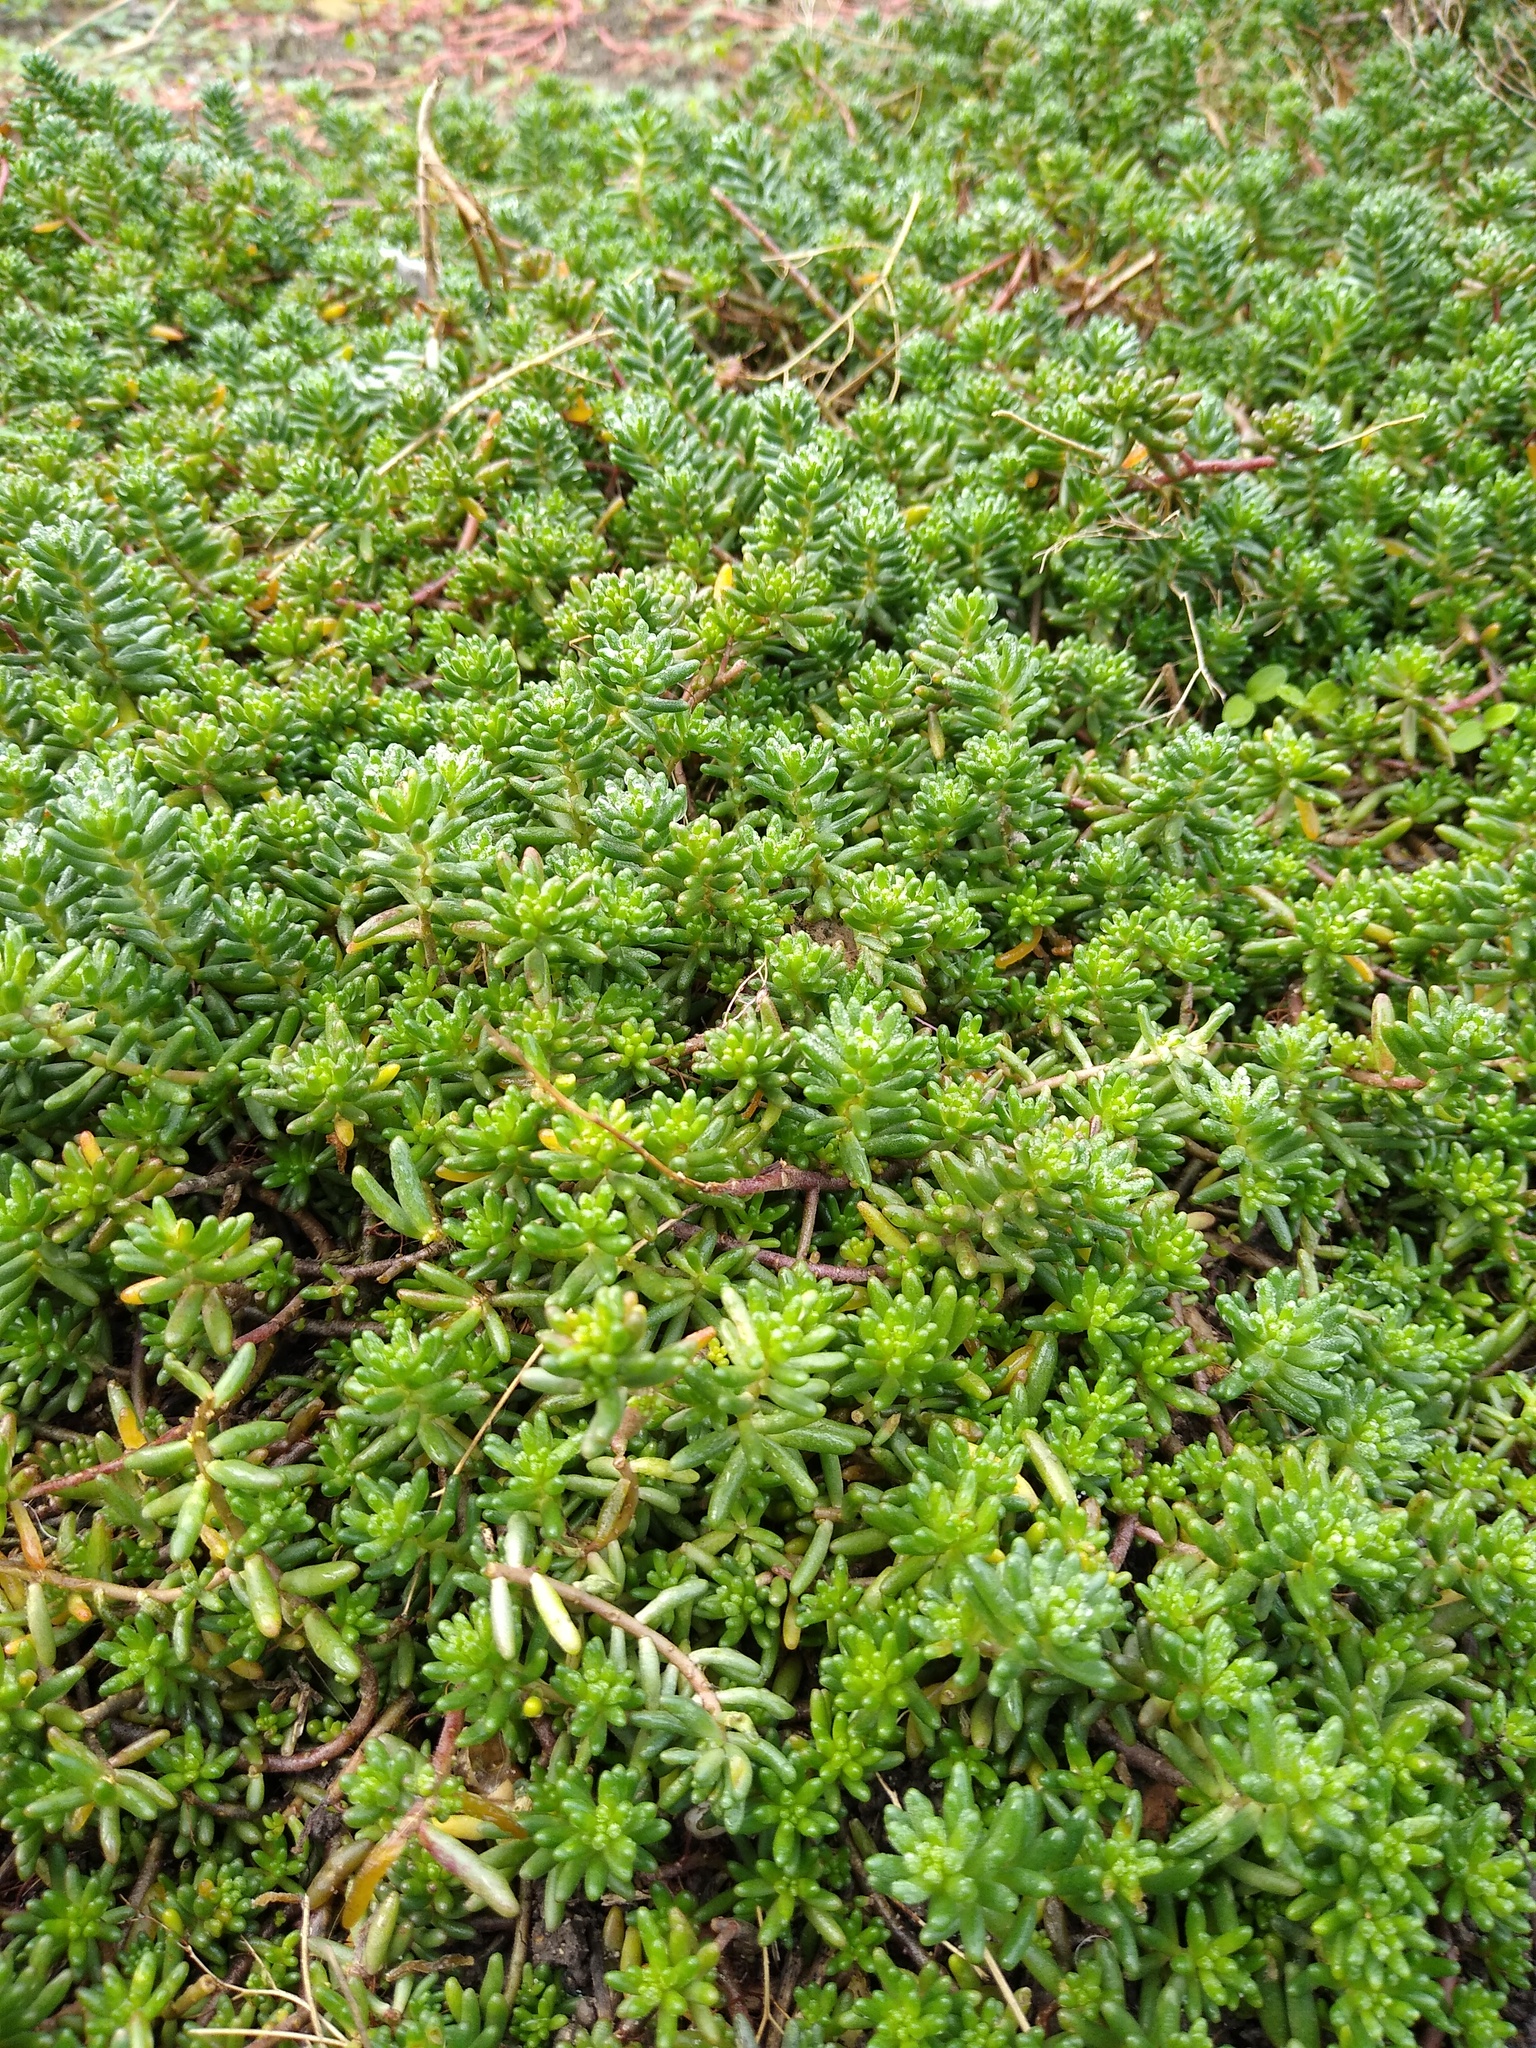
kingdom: Plantae
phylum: Tracheophyta
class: Magnoliopsida
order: Saxifragales
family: Crassulaceae
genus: Sedum
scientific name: Sedum album
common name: White stonecrop
